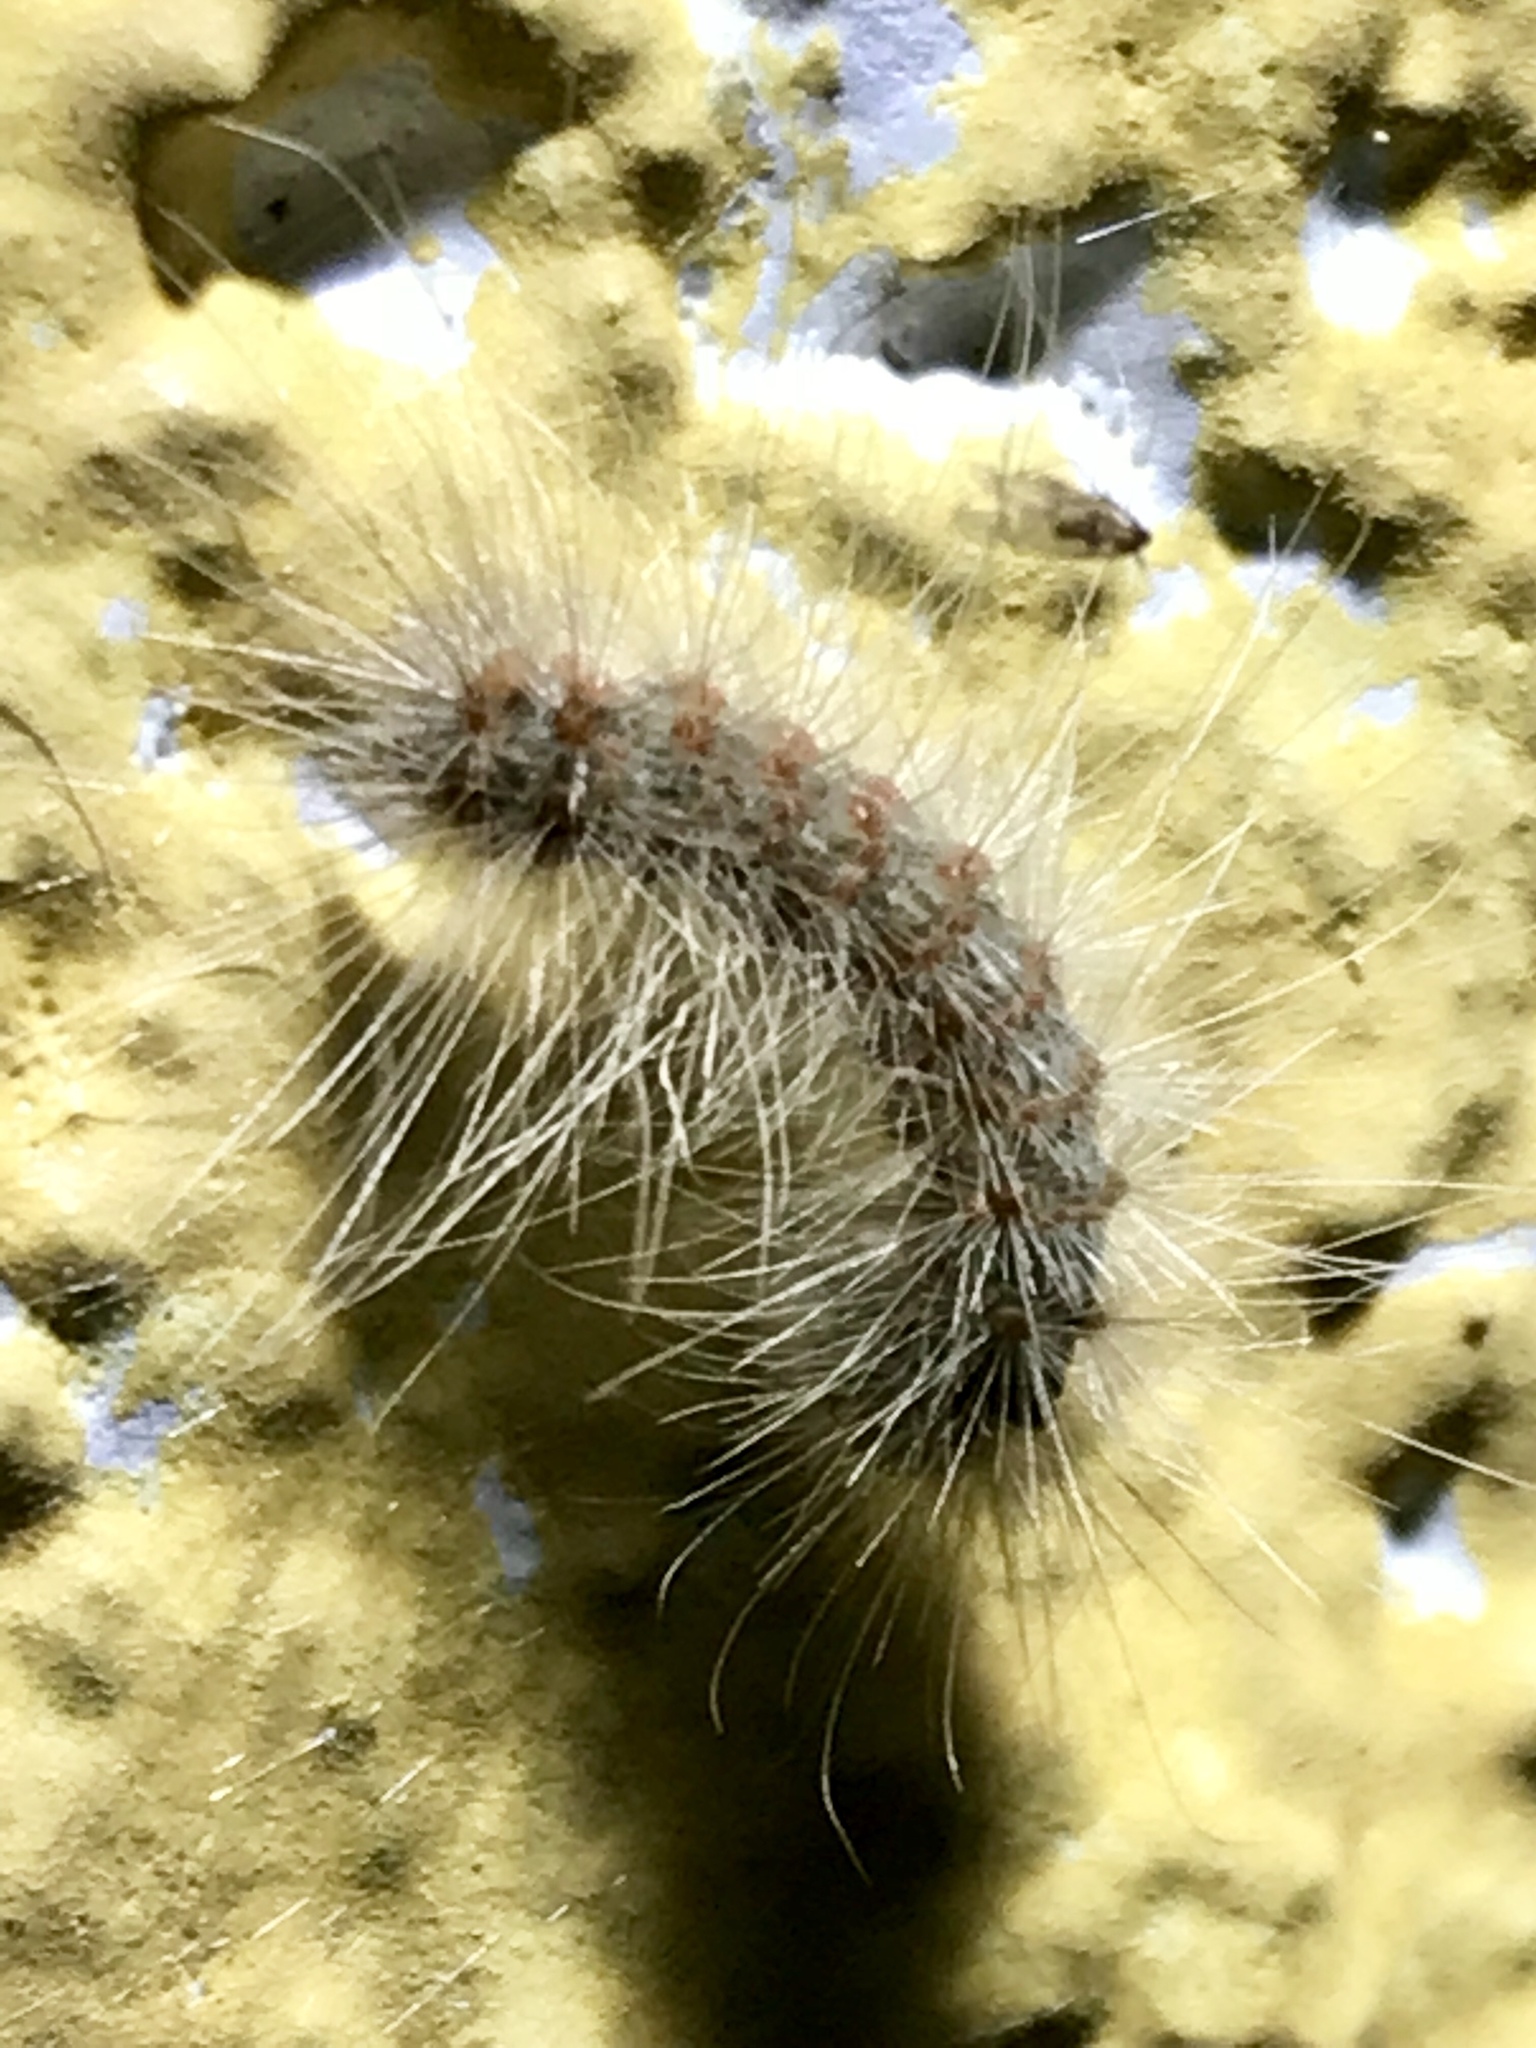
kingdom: Animalia
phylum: Arthropoda
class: Insecta
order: Lepidoptera
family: Erebidae
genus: Hyphantria
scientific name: Hyphantria cunea
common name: American white moth
